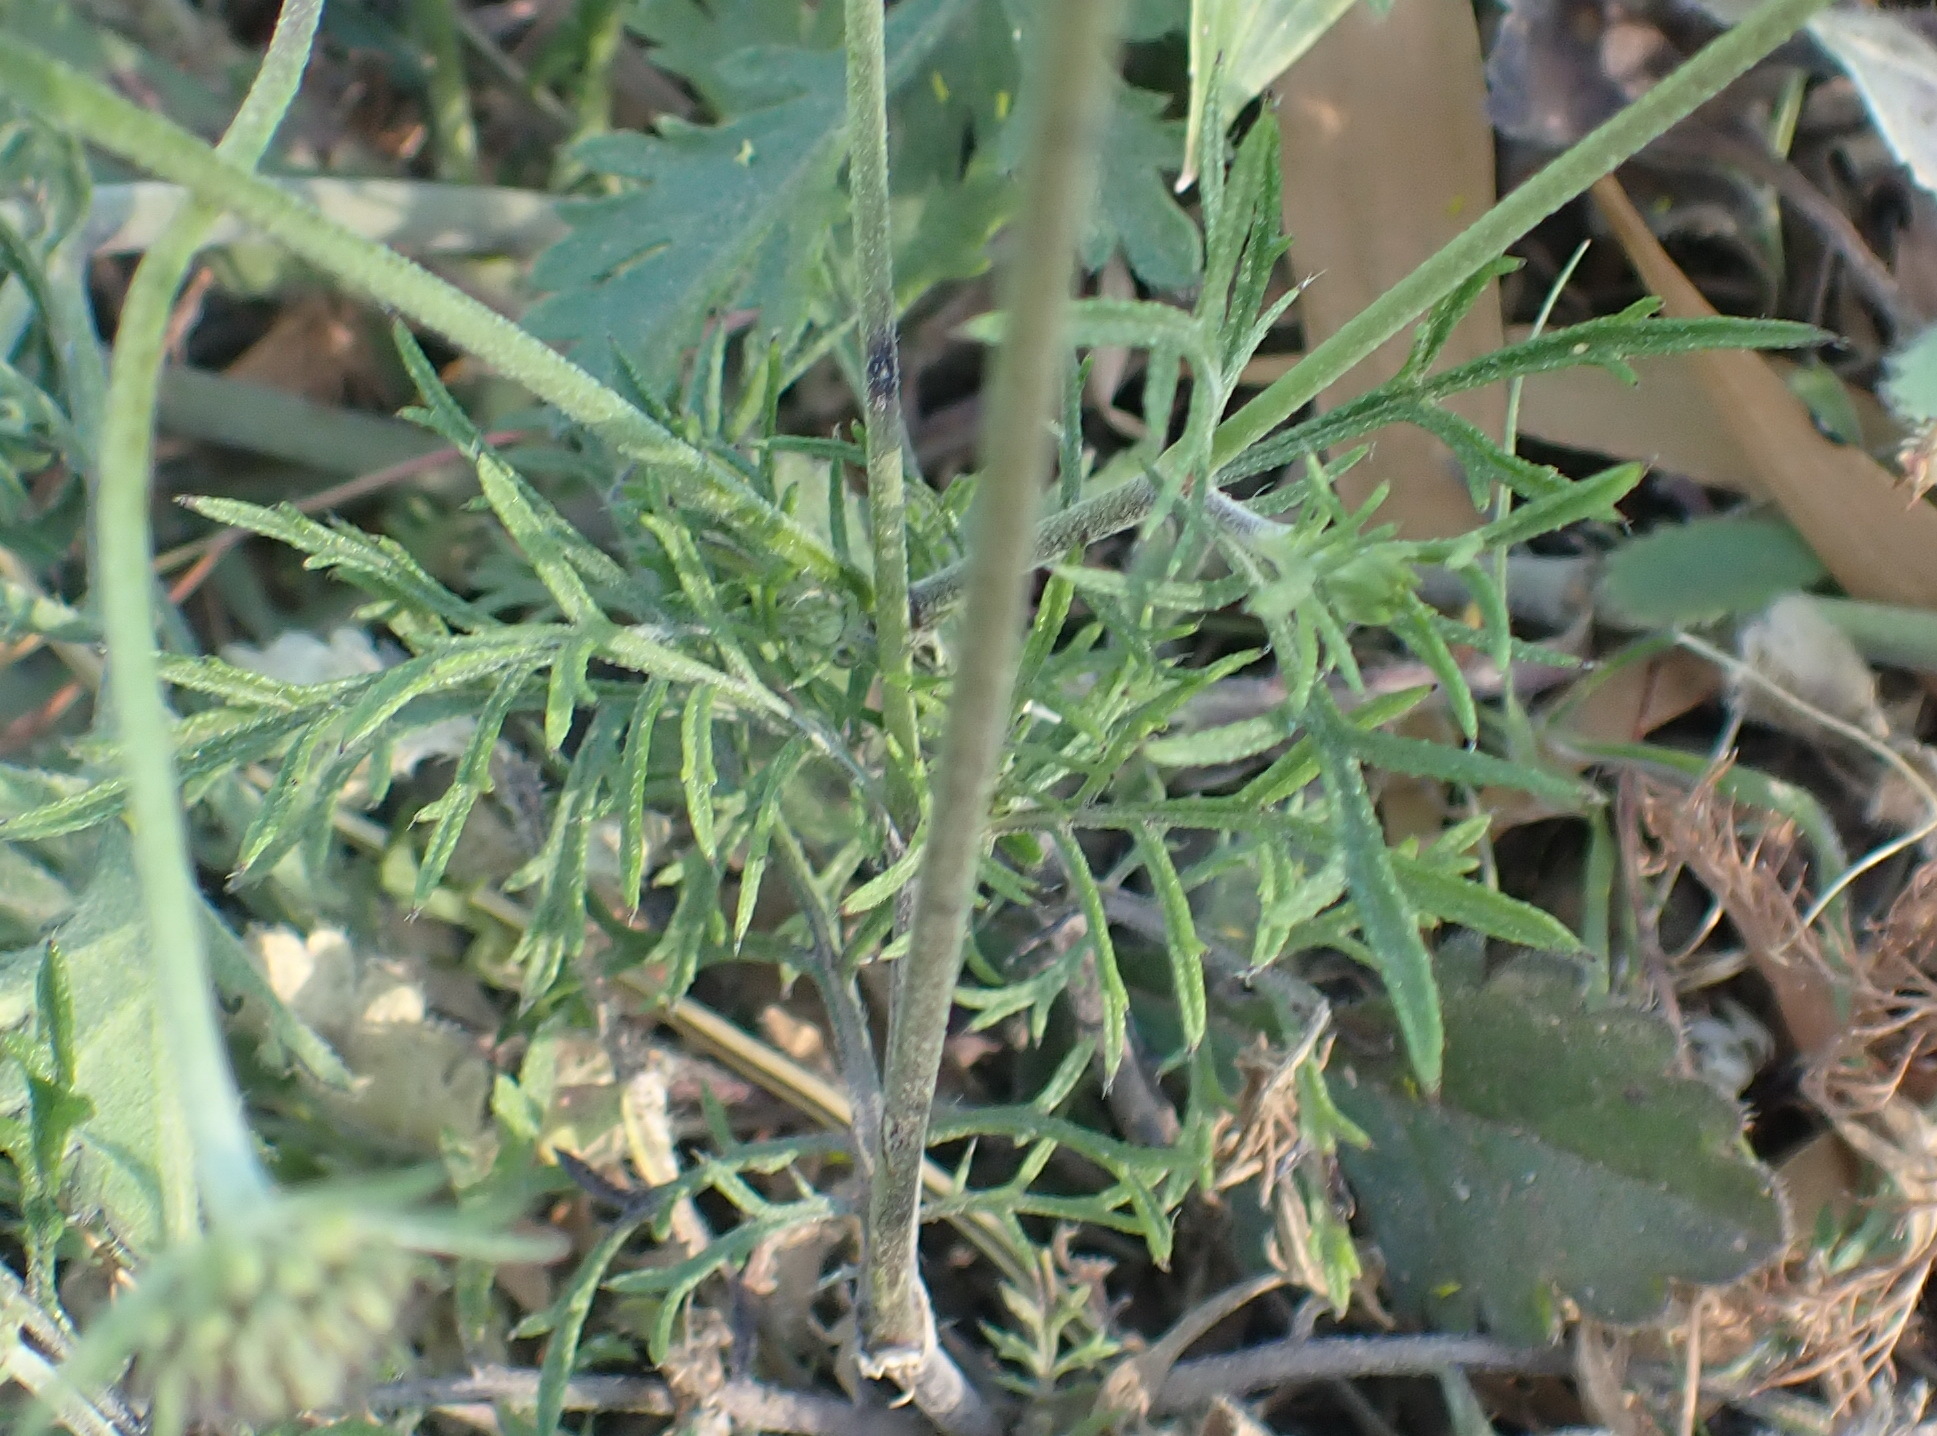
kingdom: Plantae
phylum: Tracheophyta
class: Magnoliopsida
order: Dipsacales
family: Caprifoliaceae
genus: Scabiosa
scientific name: Scabiosa columbaria
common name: Small scabious
